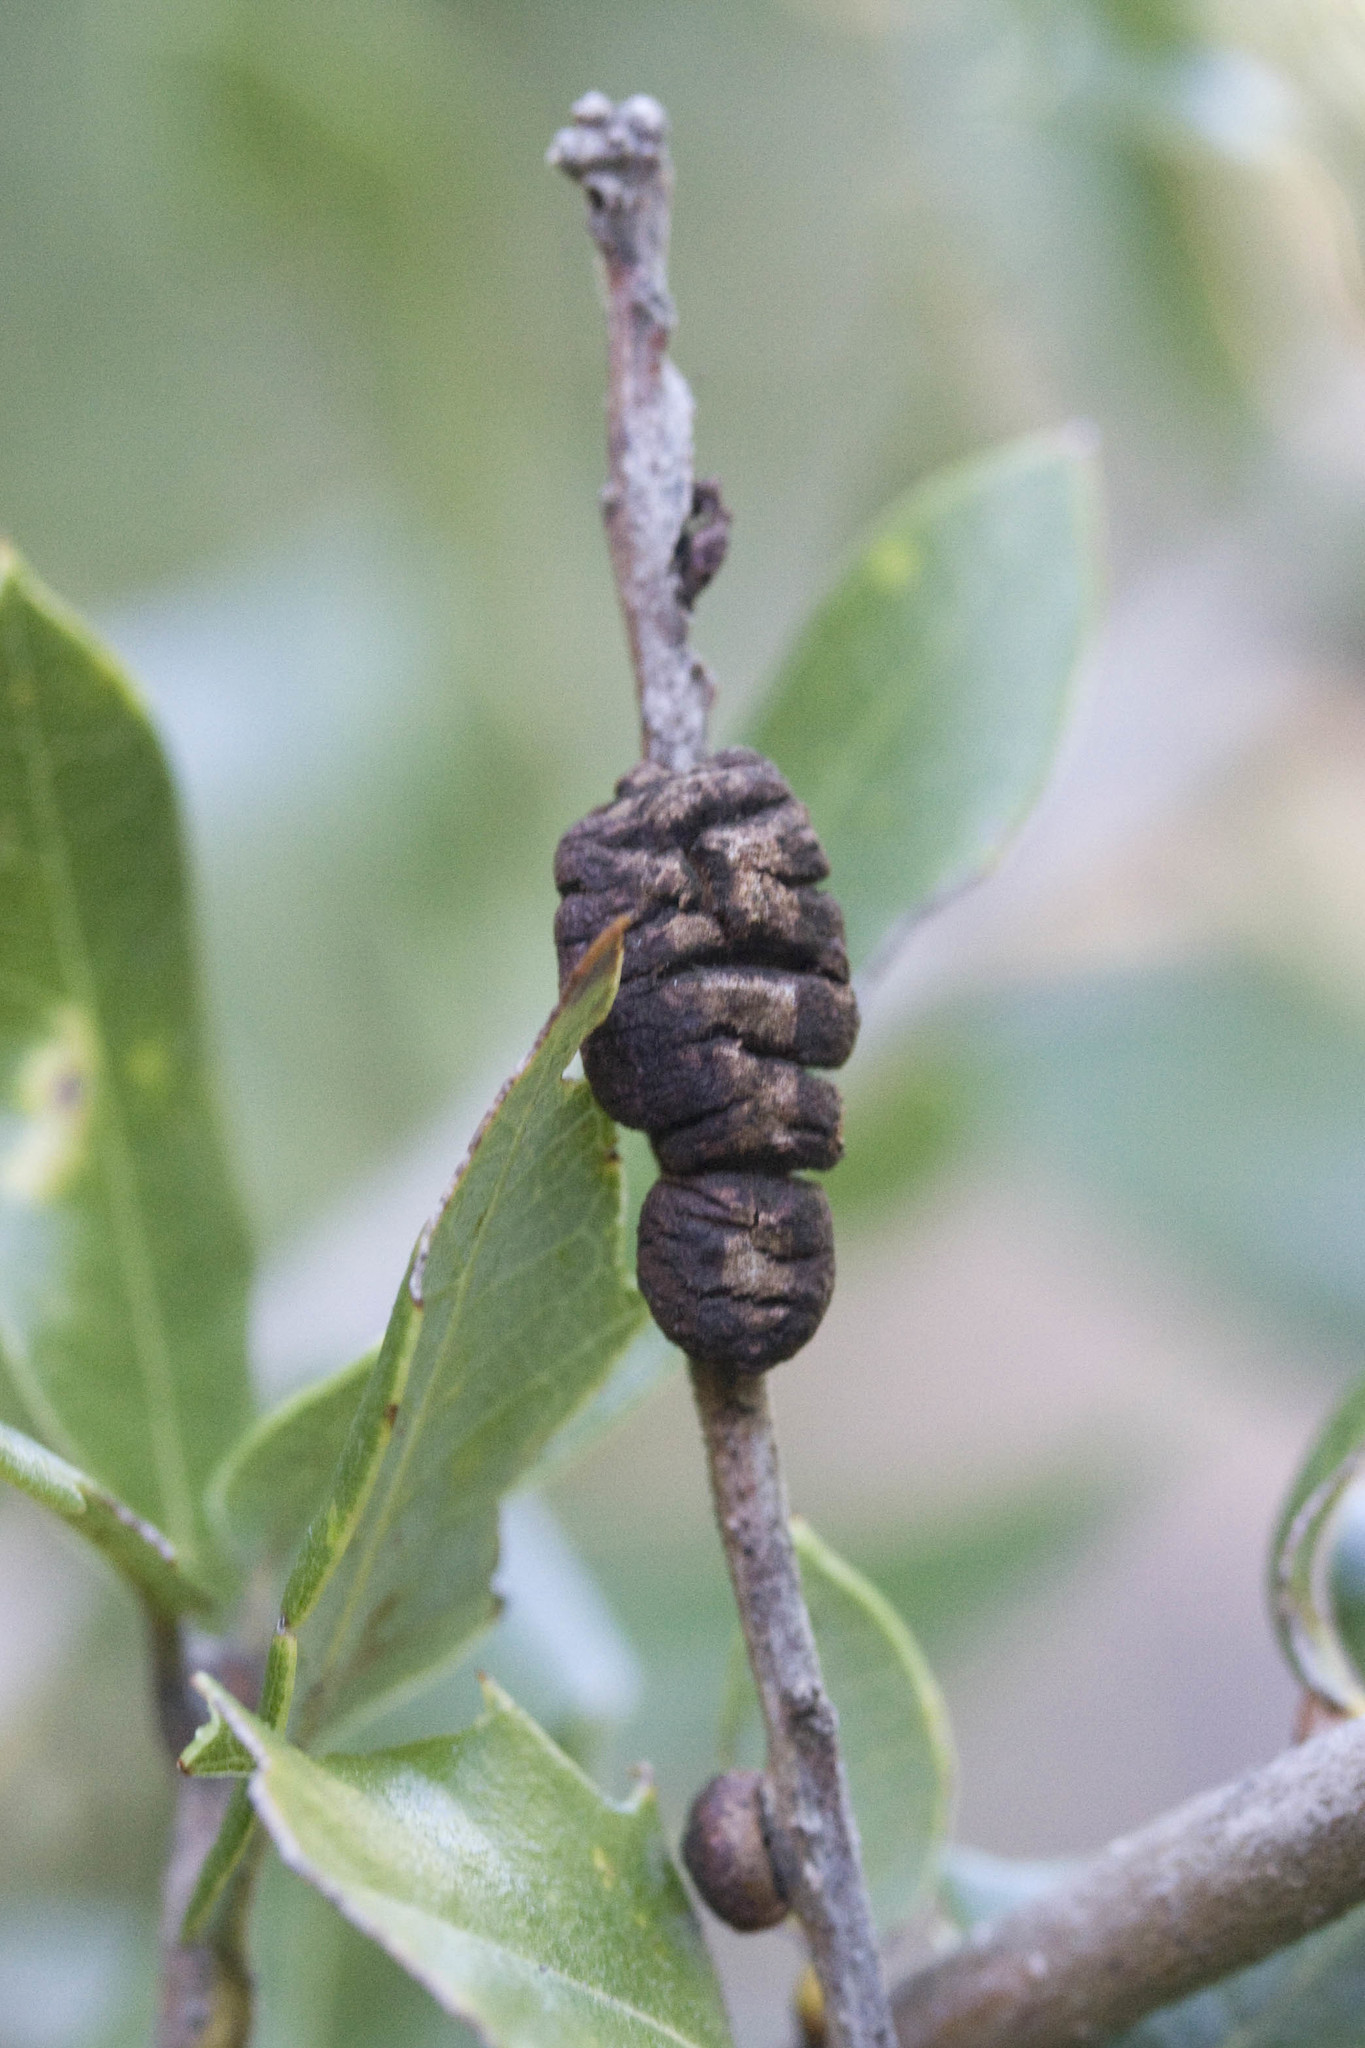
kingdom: Animalia
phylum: Arthropoda
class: Insecta
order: Hymenoptera
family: Cynipidae
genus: Disholandricus
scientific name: Disholandricus
